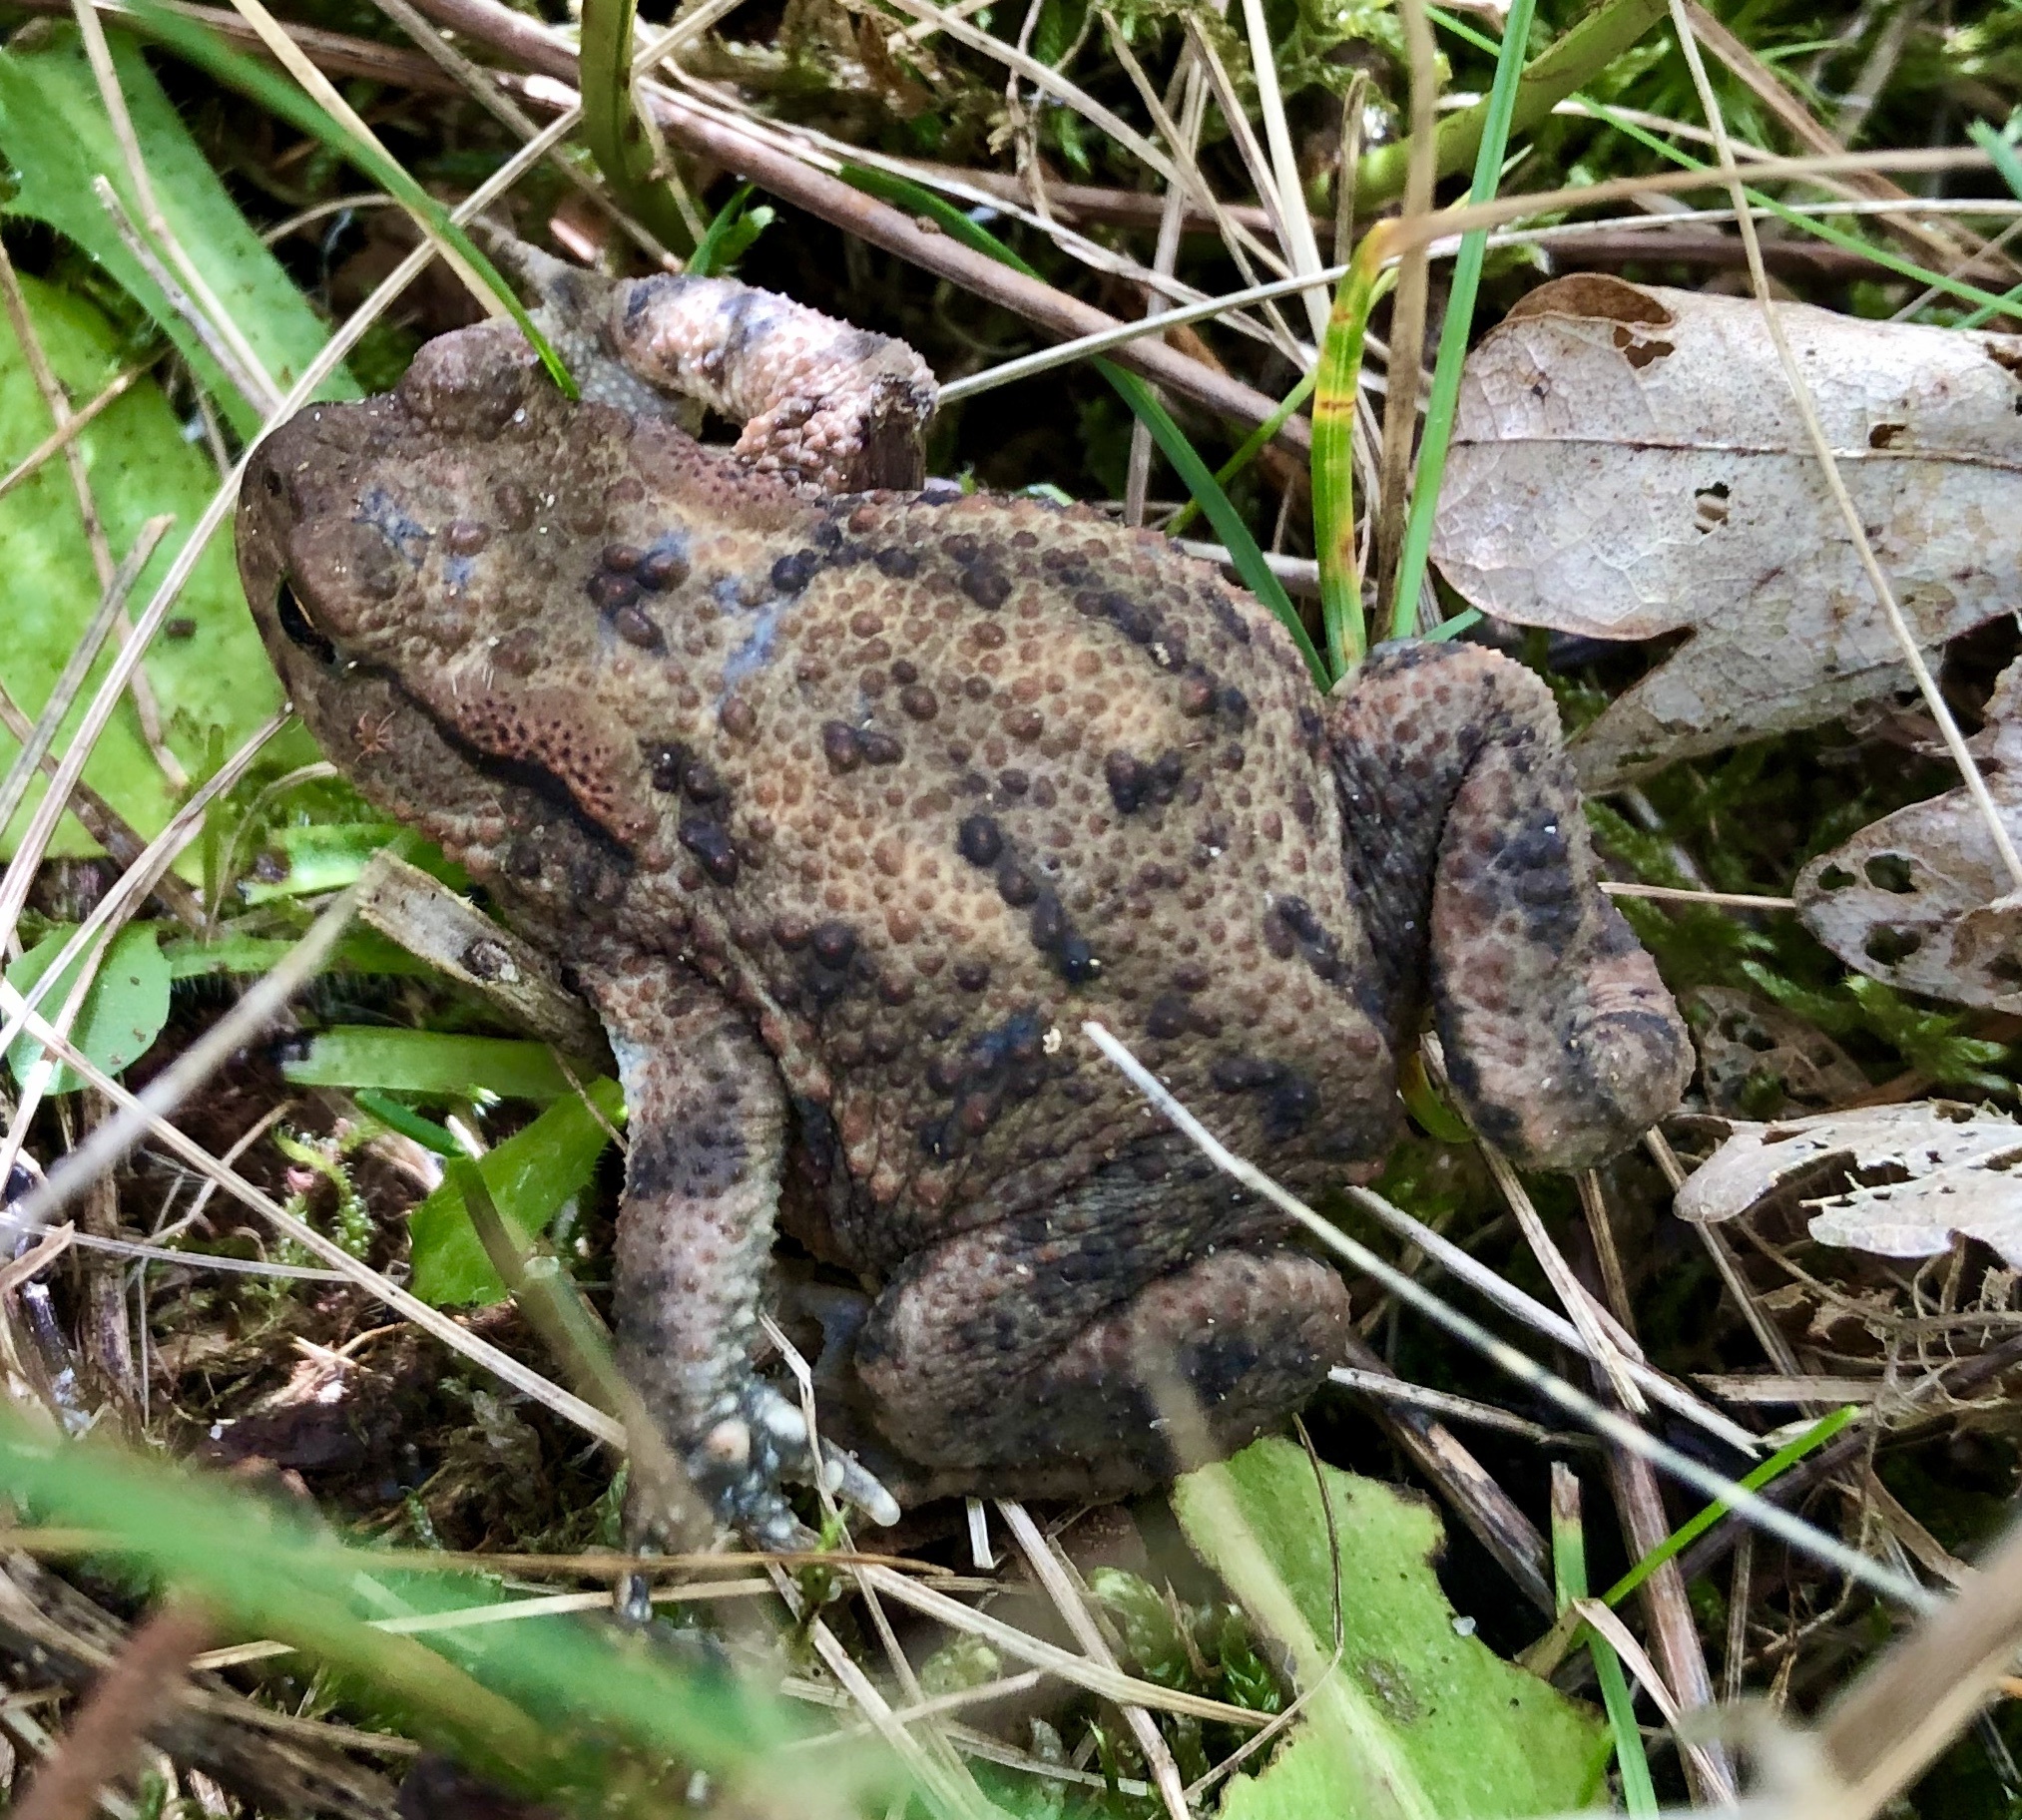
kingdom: Animalia
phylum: Chordata
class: Amphibia
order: Anura
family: Bufonidae
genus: Bufo
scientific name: Bufo bufo
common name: Common toad
